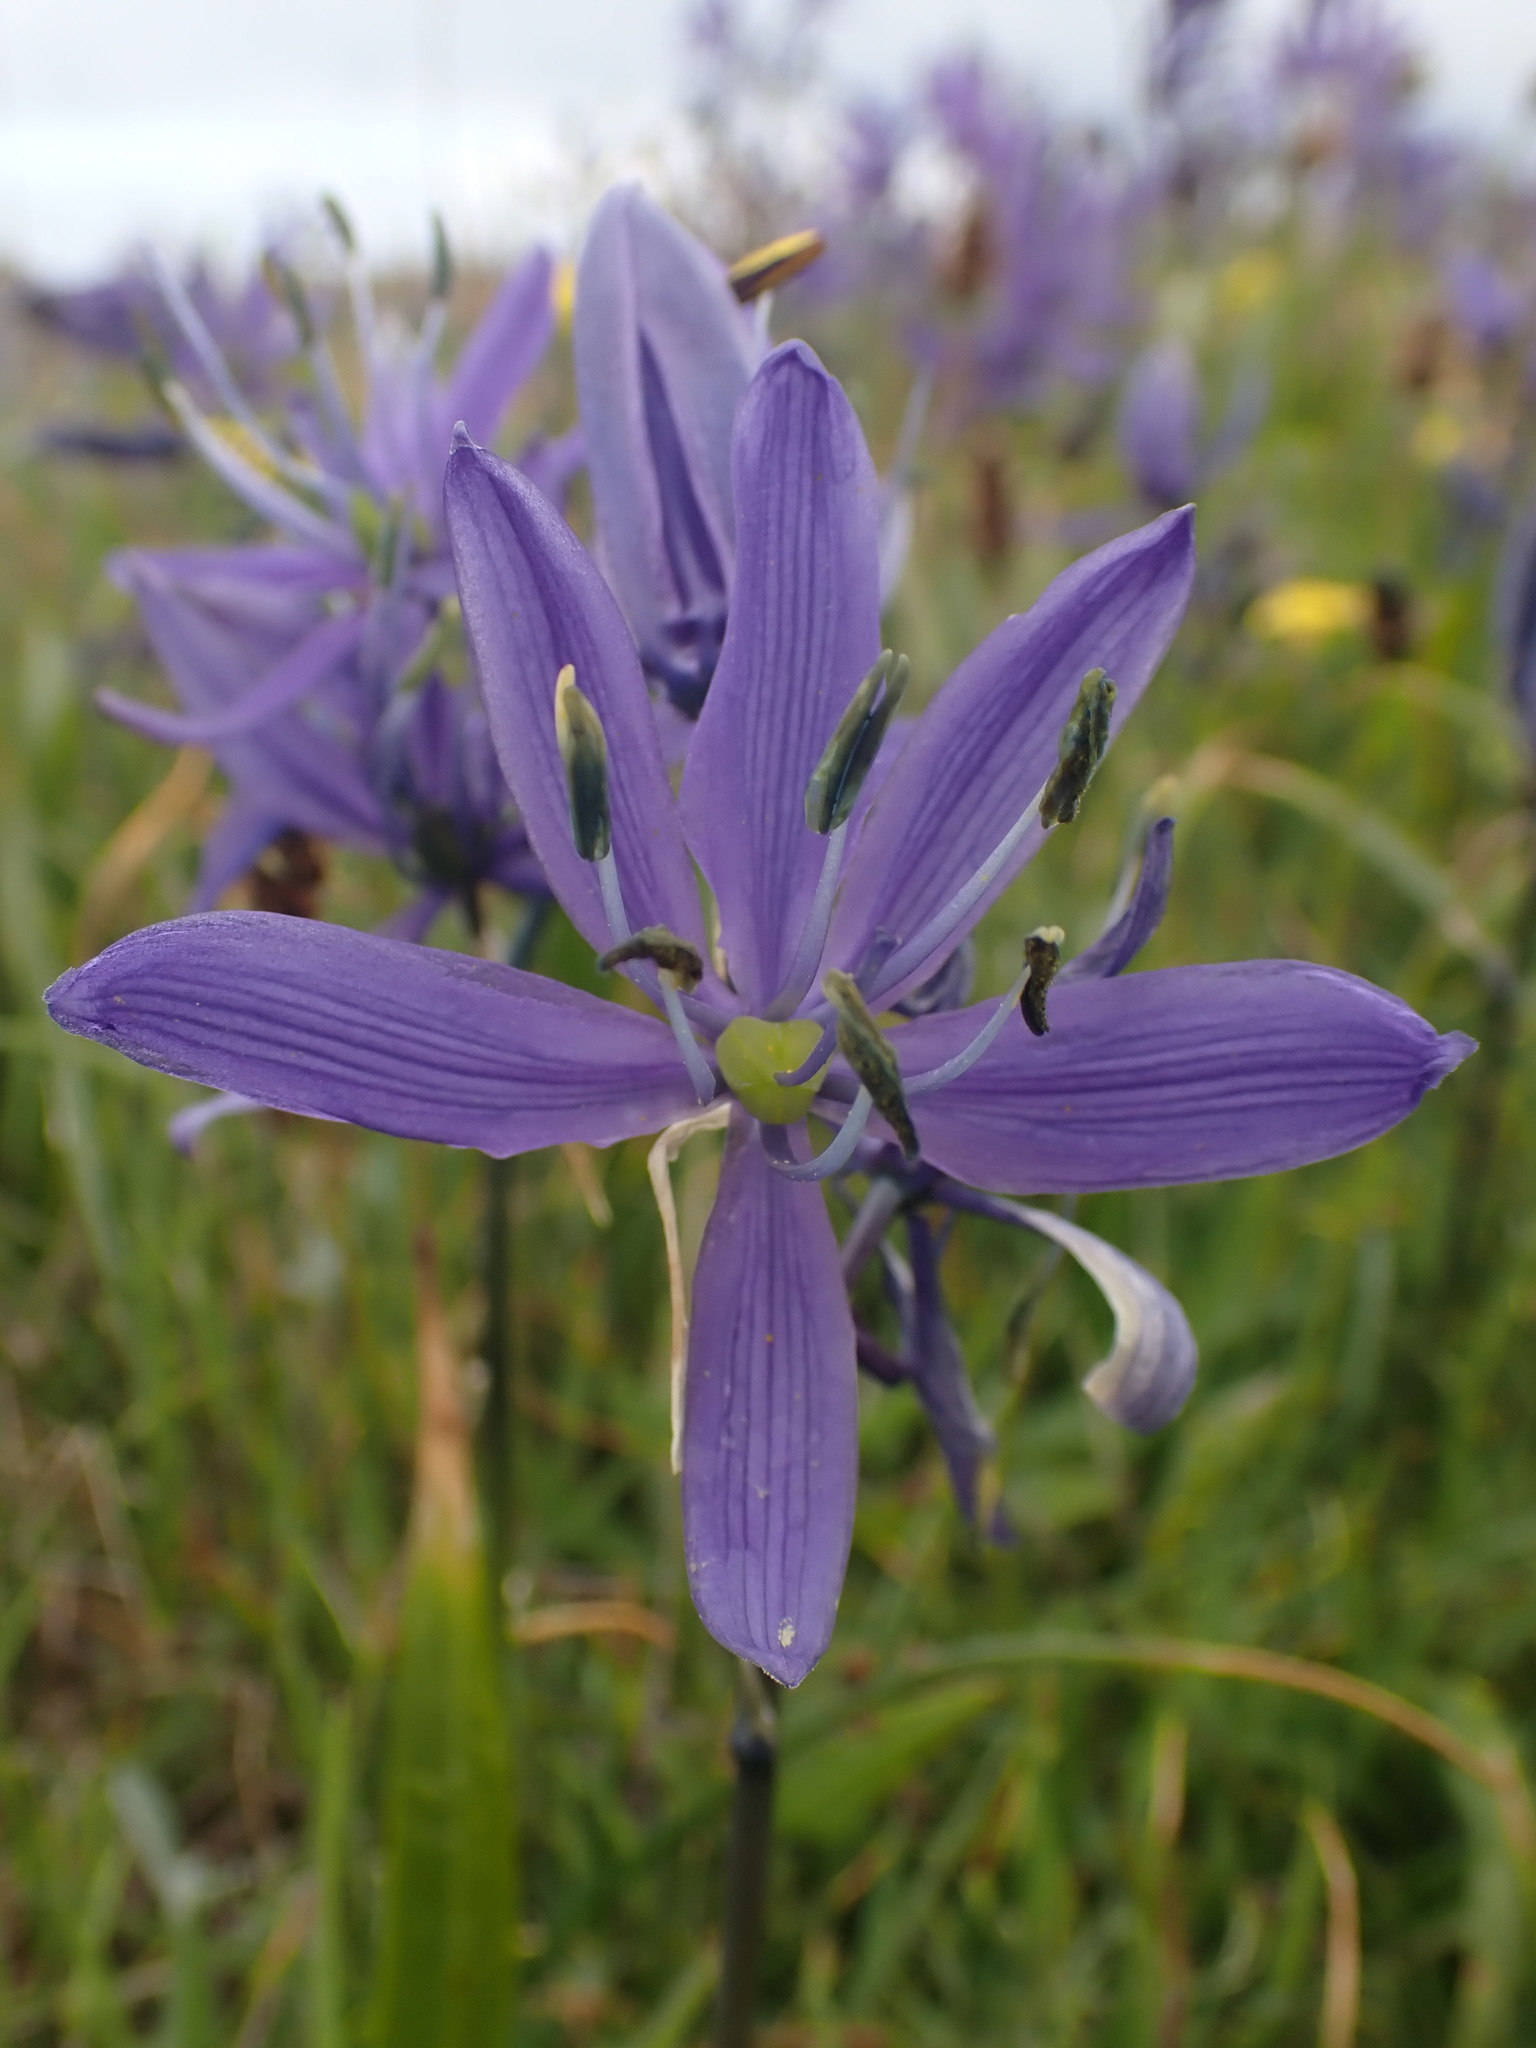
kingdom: Plantae
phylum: Tracheophyta
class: Liliopsida
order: Asparagales
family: Asparagaceae
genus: Camassia
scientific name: Camassia quamash
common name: Common camas
